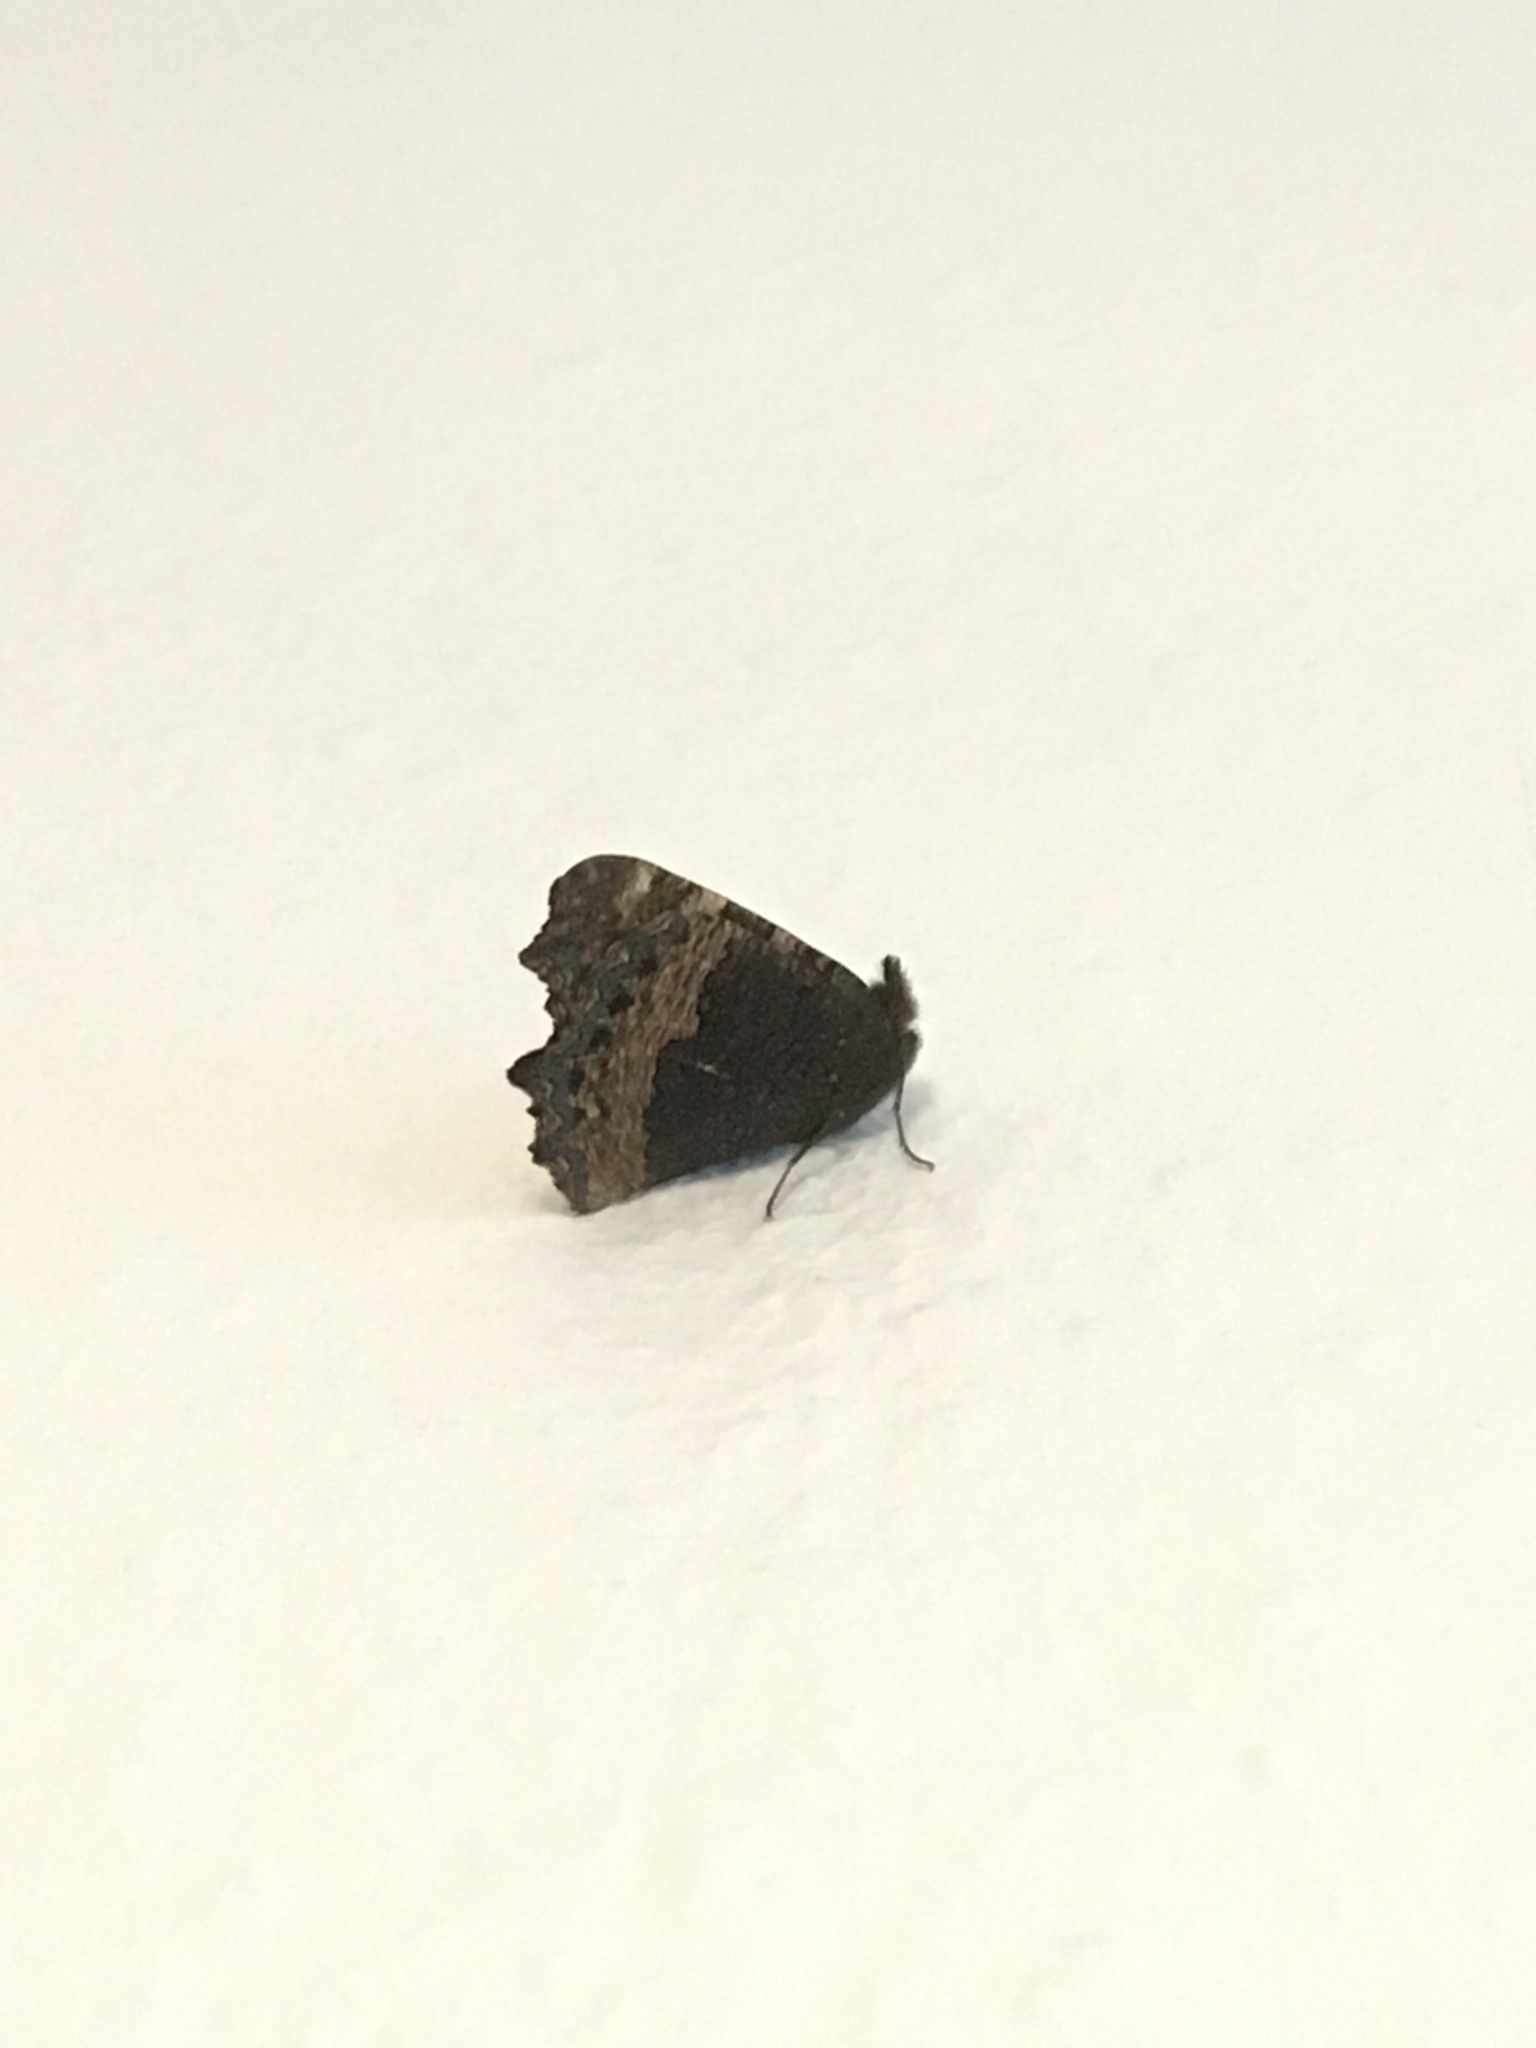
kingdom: Animalia
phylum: Arthropoda
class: Insecta
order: Lepidoptera
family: Nymphalidae
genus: Aglais
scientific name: Aglais urticae
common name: Small tortoiseshell
